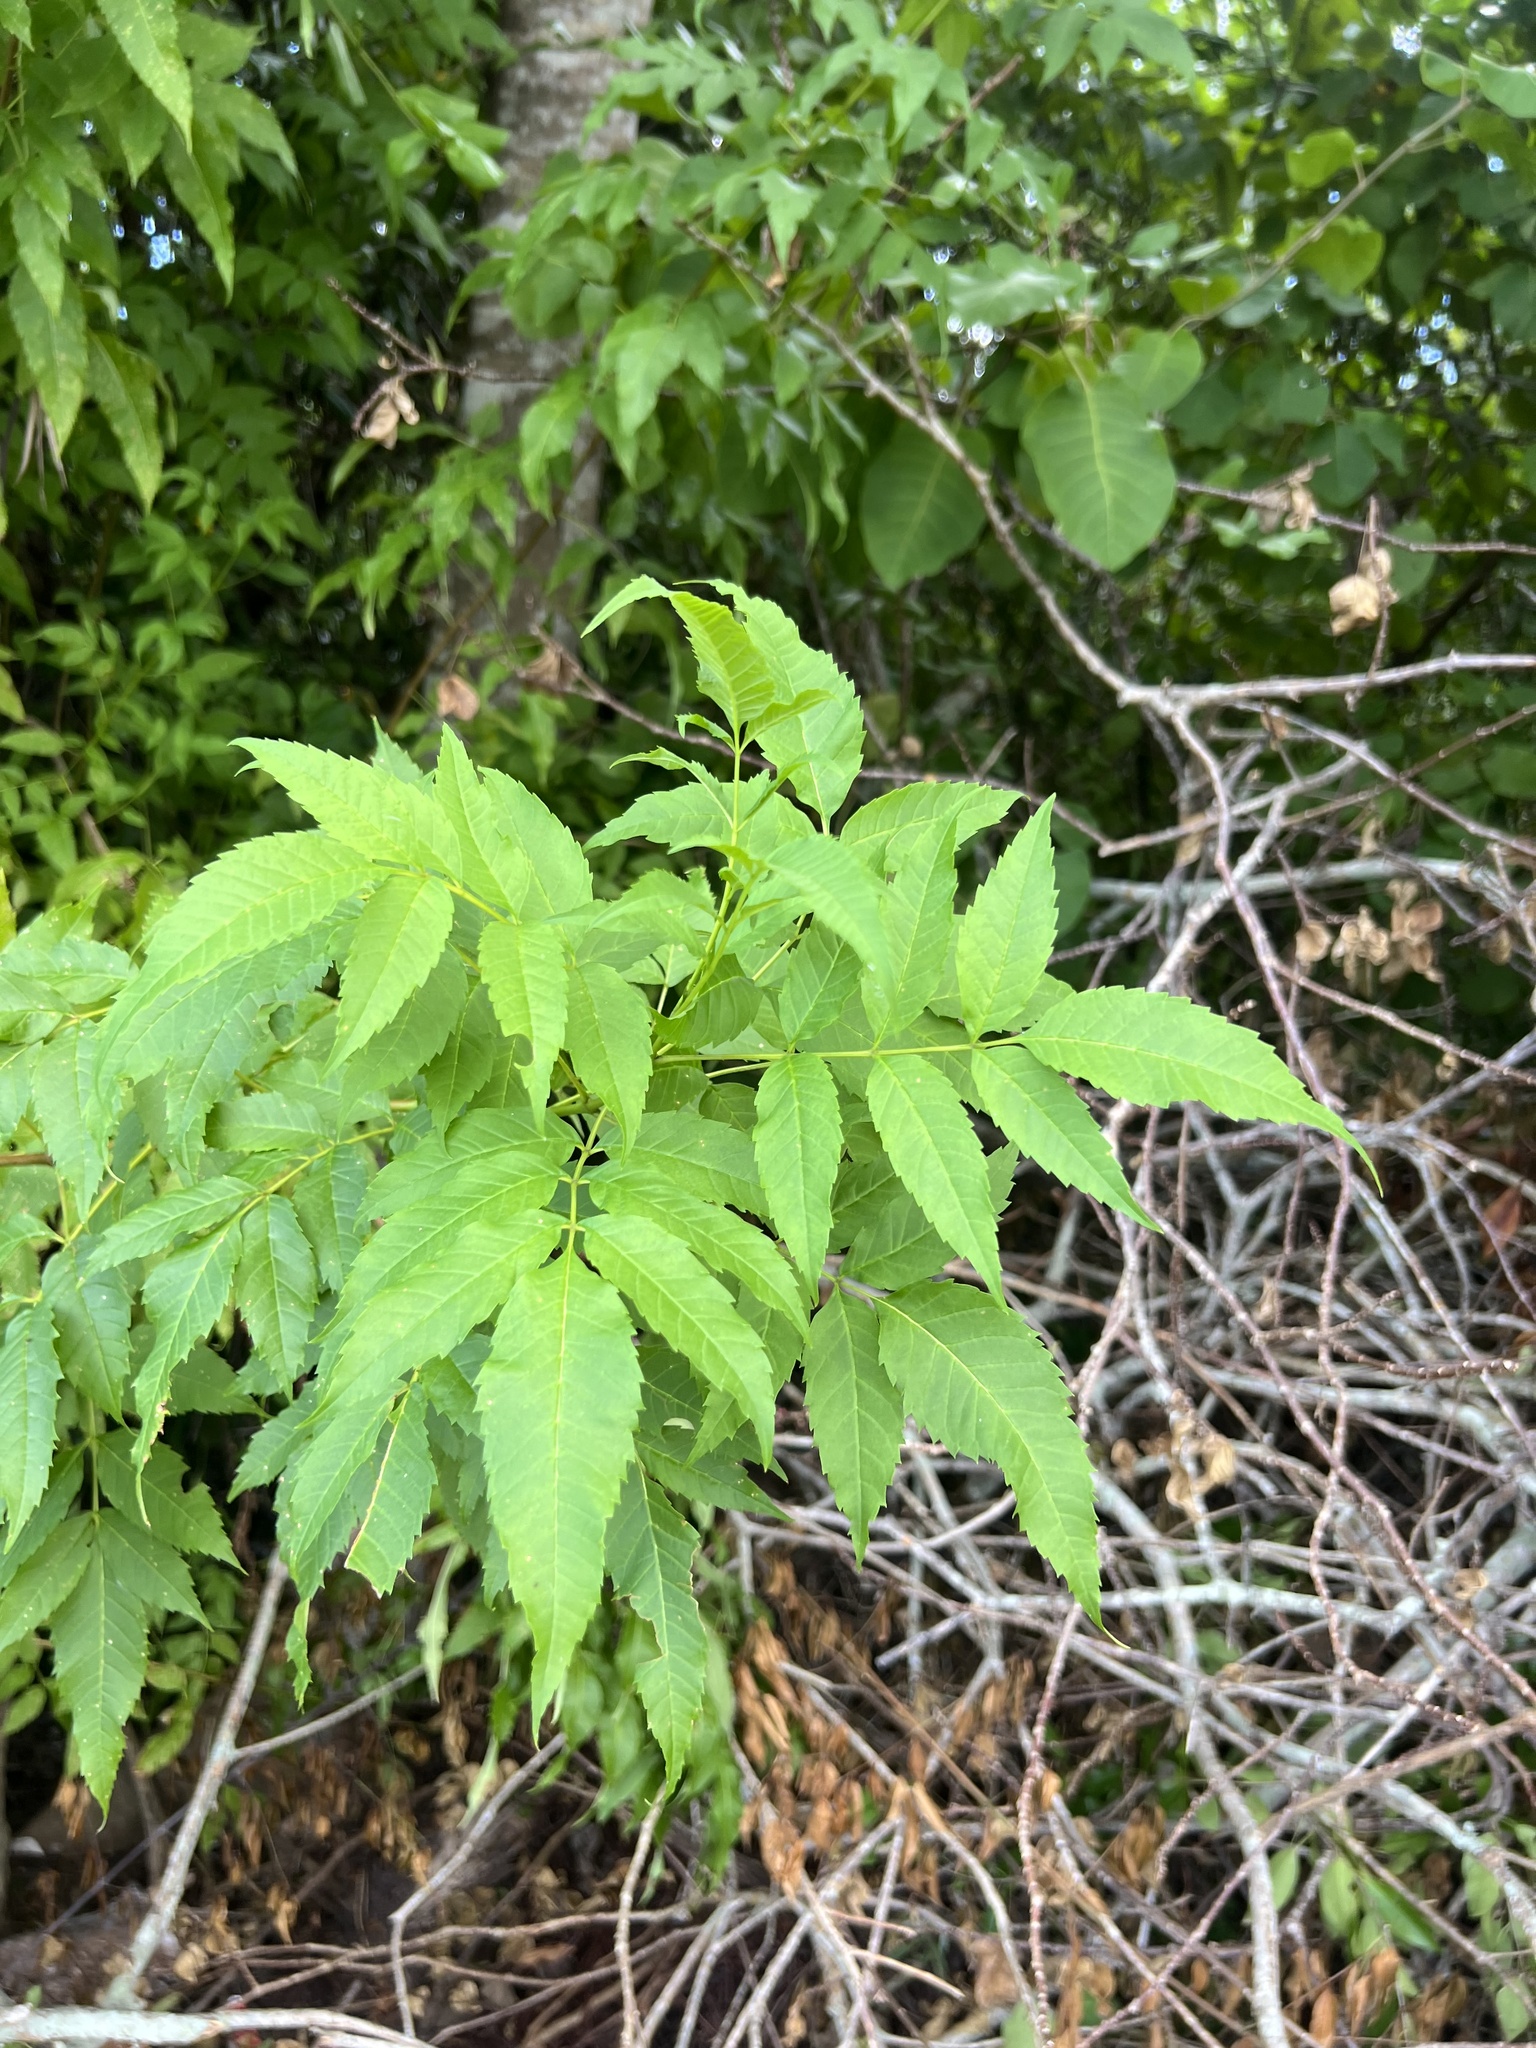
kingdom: Plantae
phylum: Tracheophyta
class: Magnoliopsida
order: Lamiales
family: Bignoniaceae
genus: Tecoma
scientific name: Tecoma stans
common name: Yellow trumpetbush
